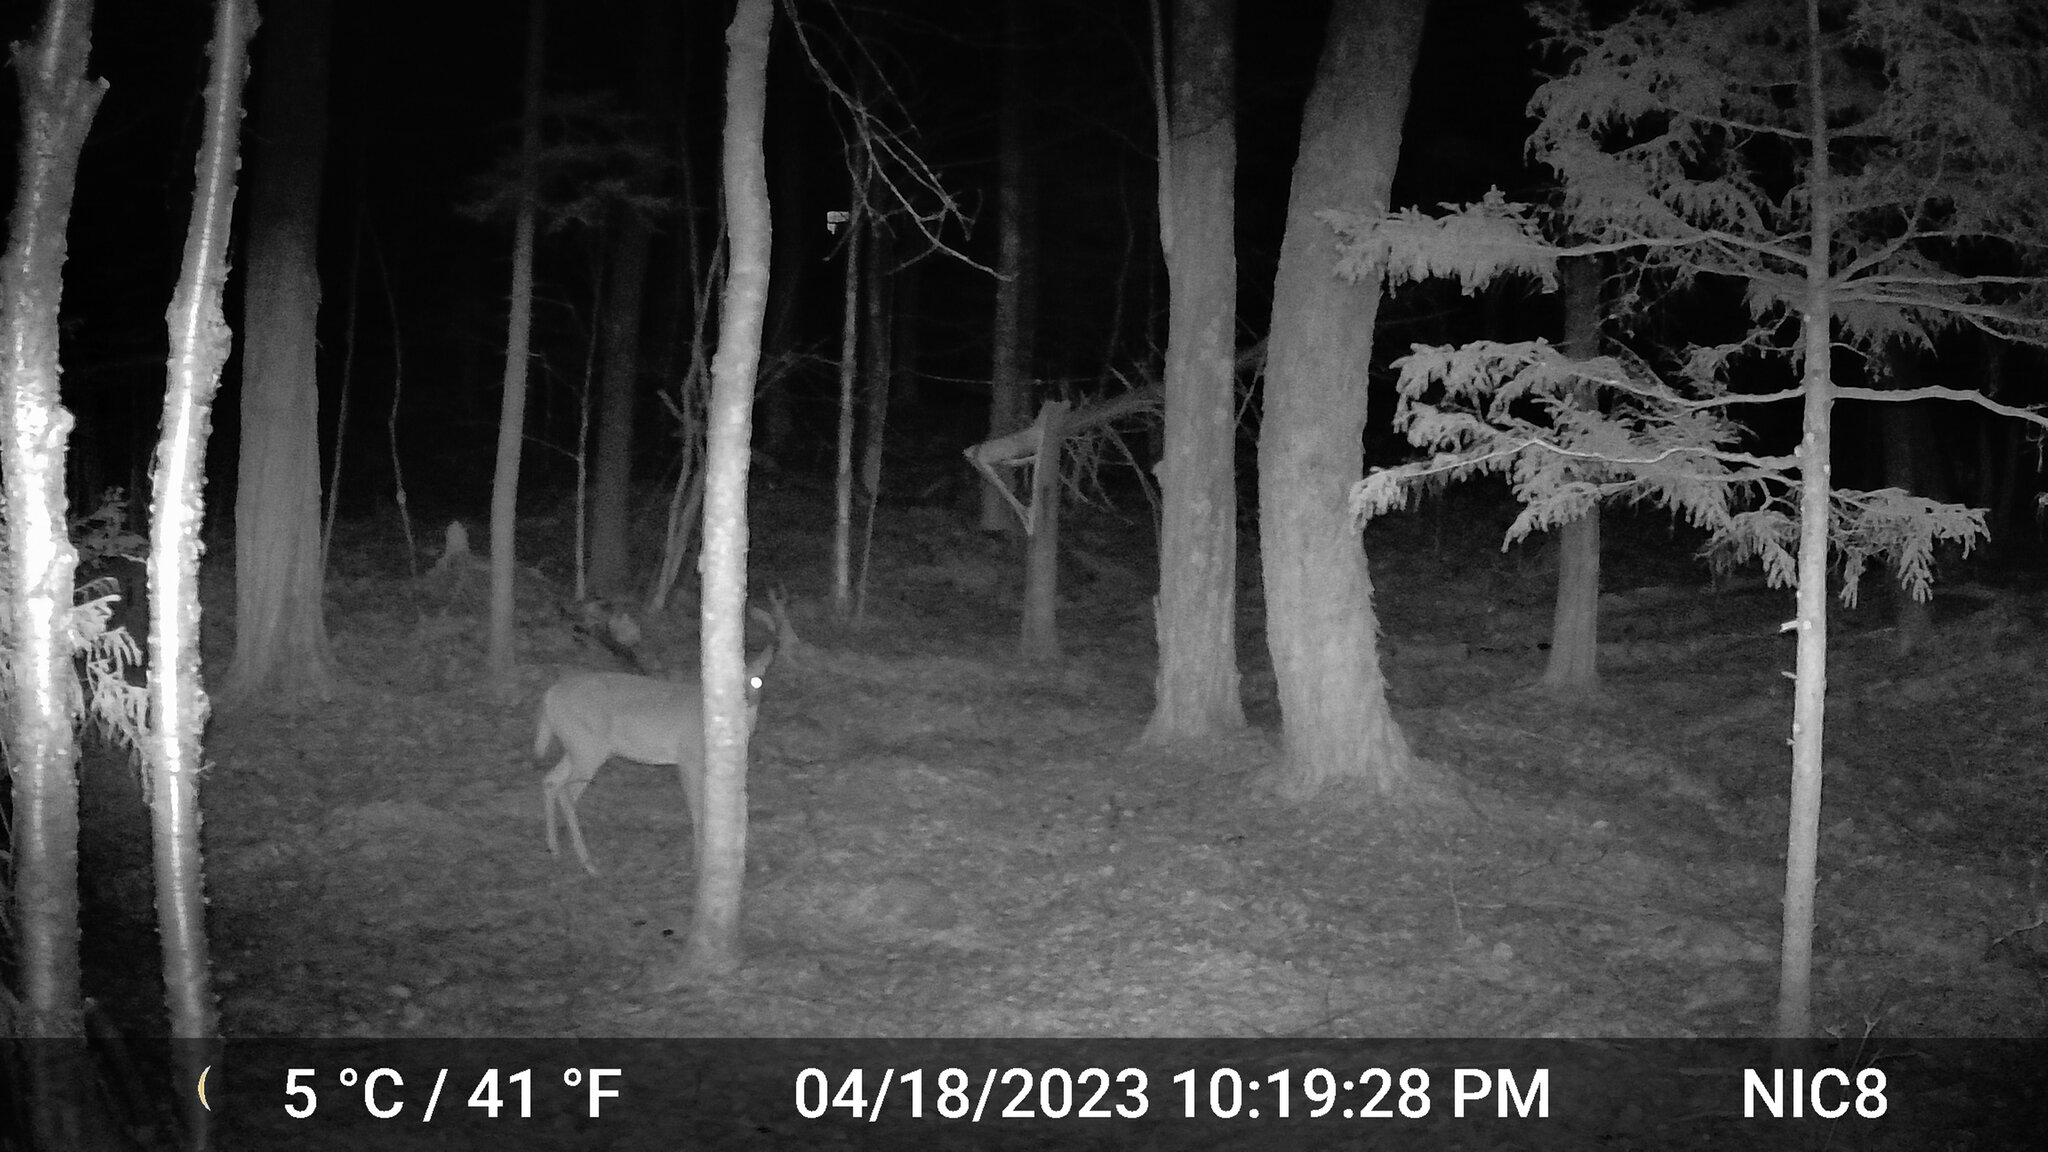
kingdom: Animalia
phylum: Chordata
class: Mammalia
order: Artiodactyla
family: Cervidae
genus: Odocoileus
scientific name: Odocoileus virginianus
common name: White-tailed deer
